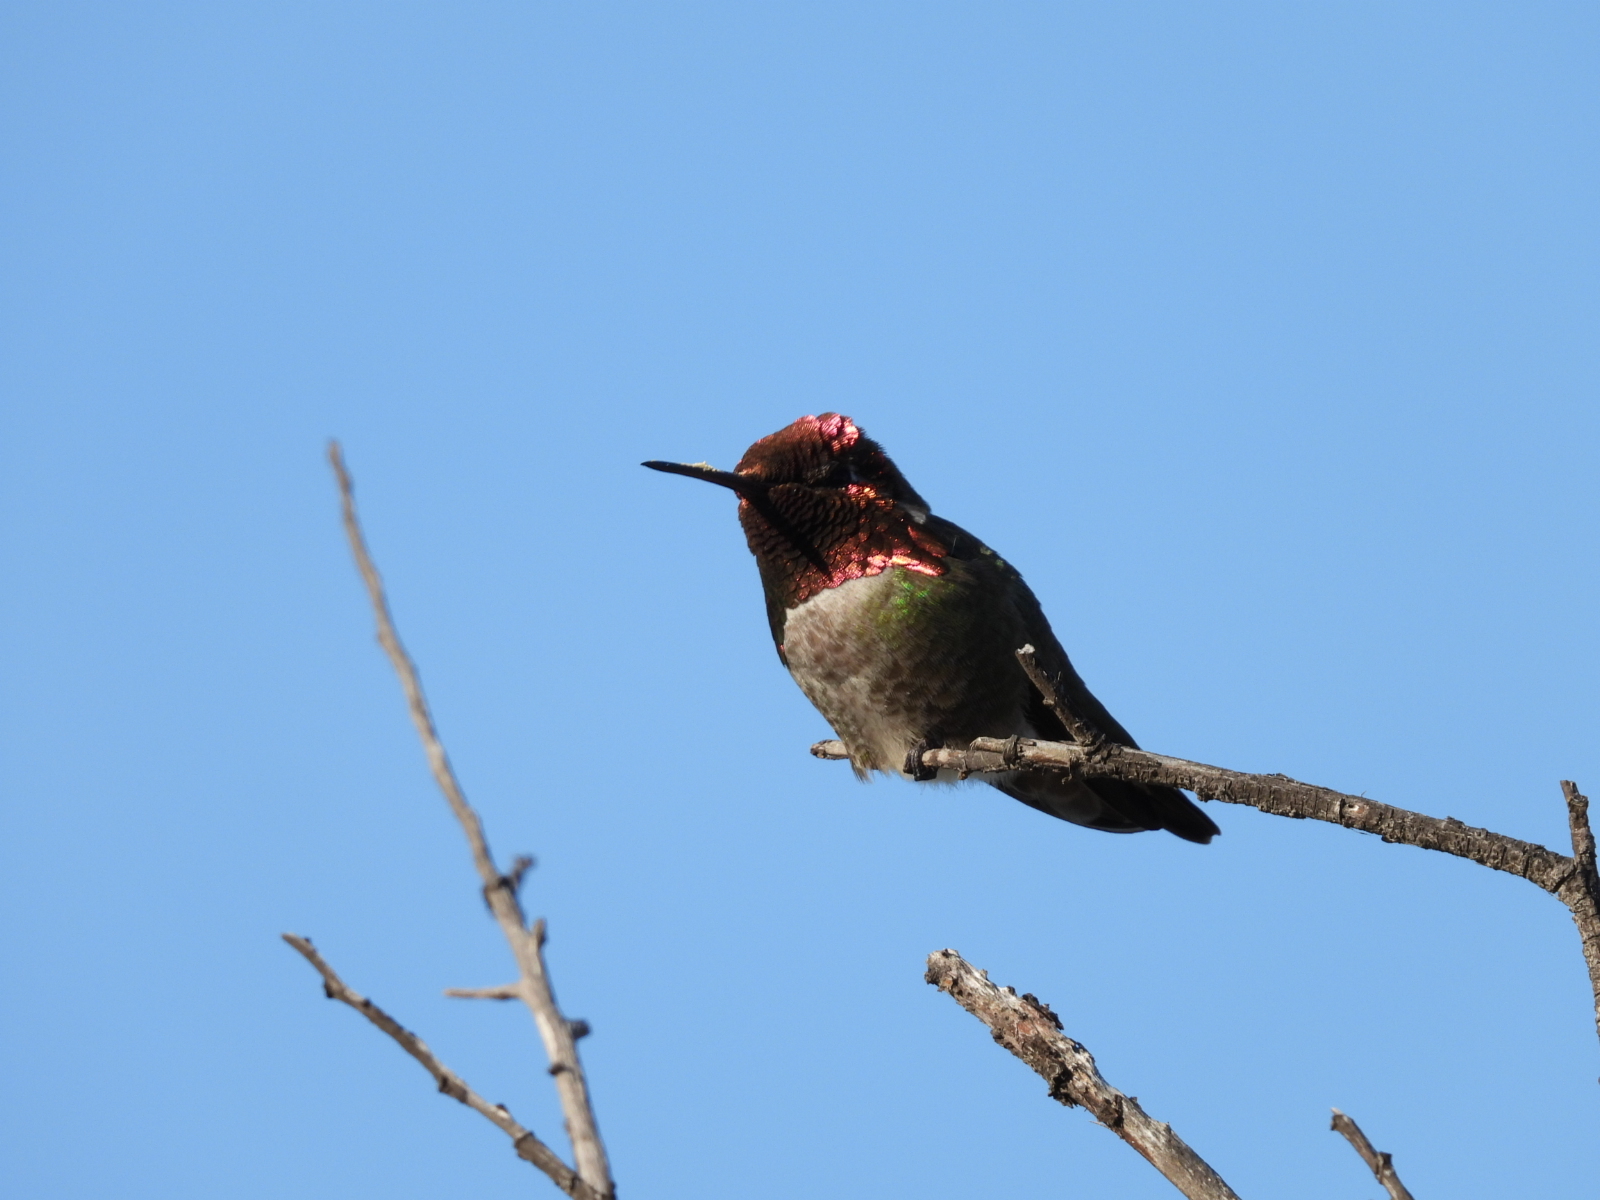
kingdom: Animalia
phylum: Chordata
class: Aves
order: Apodiformes
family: Trochilidae
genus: Calypte
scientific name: Calypte anna
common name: Anna's hummingbird
